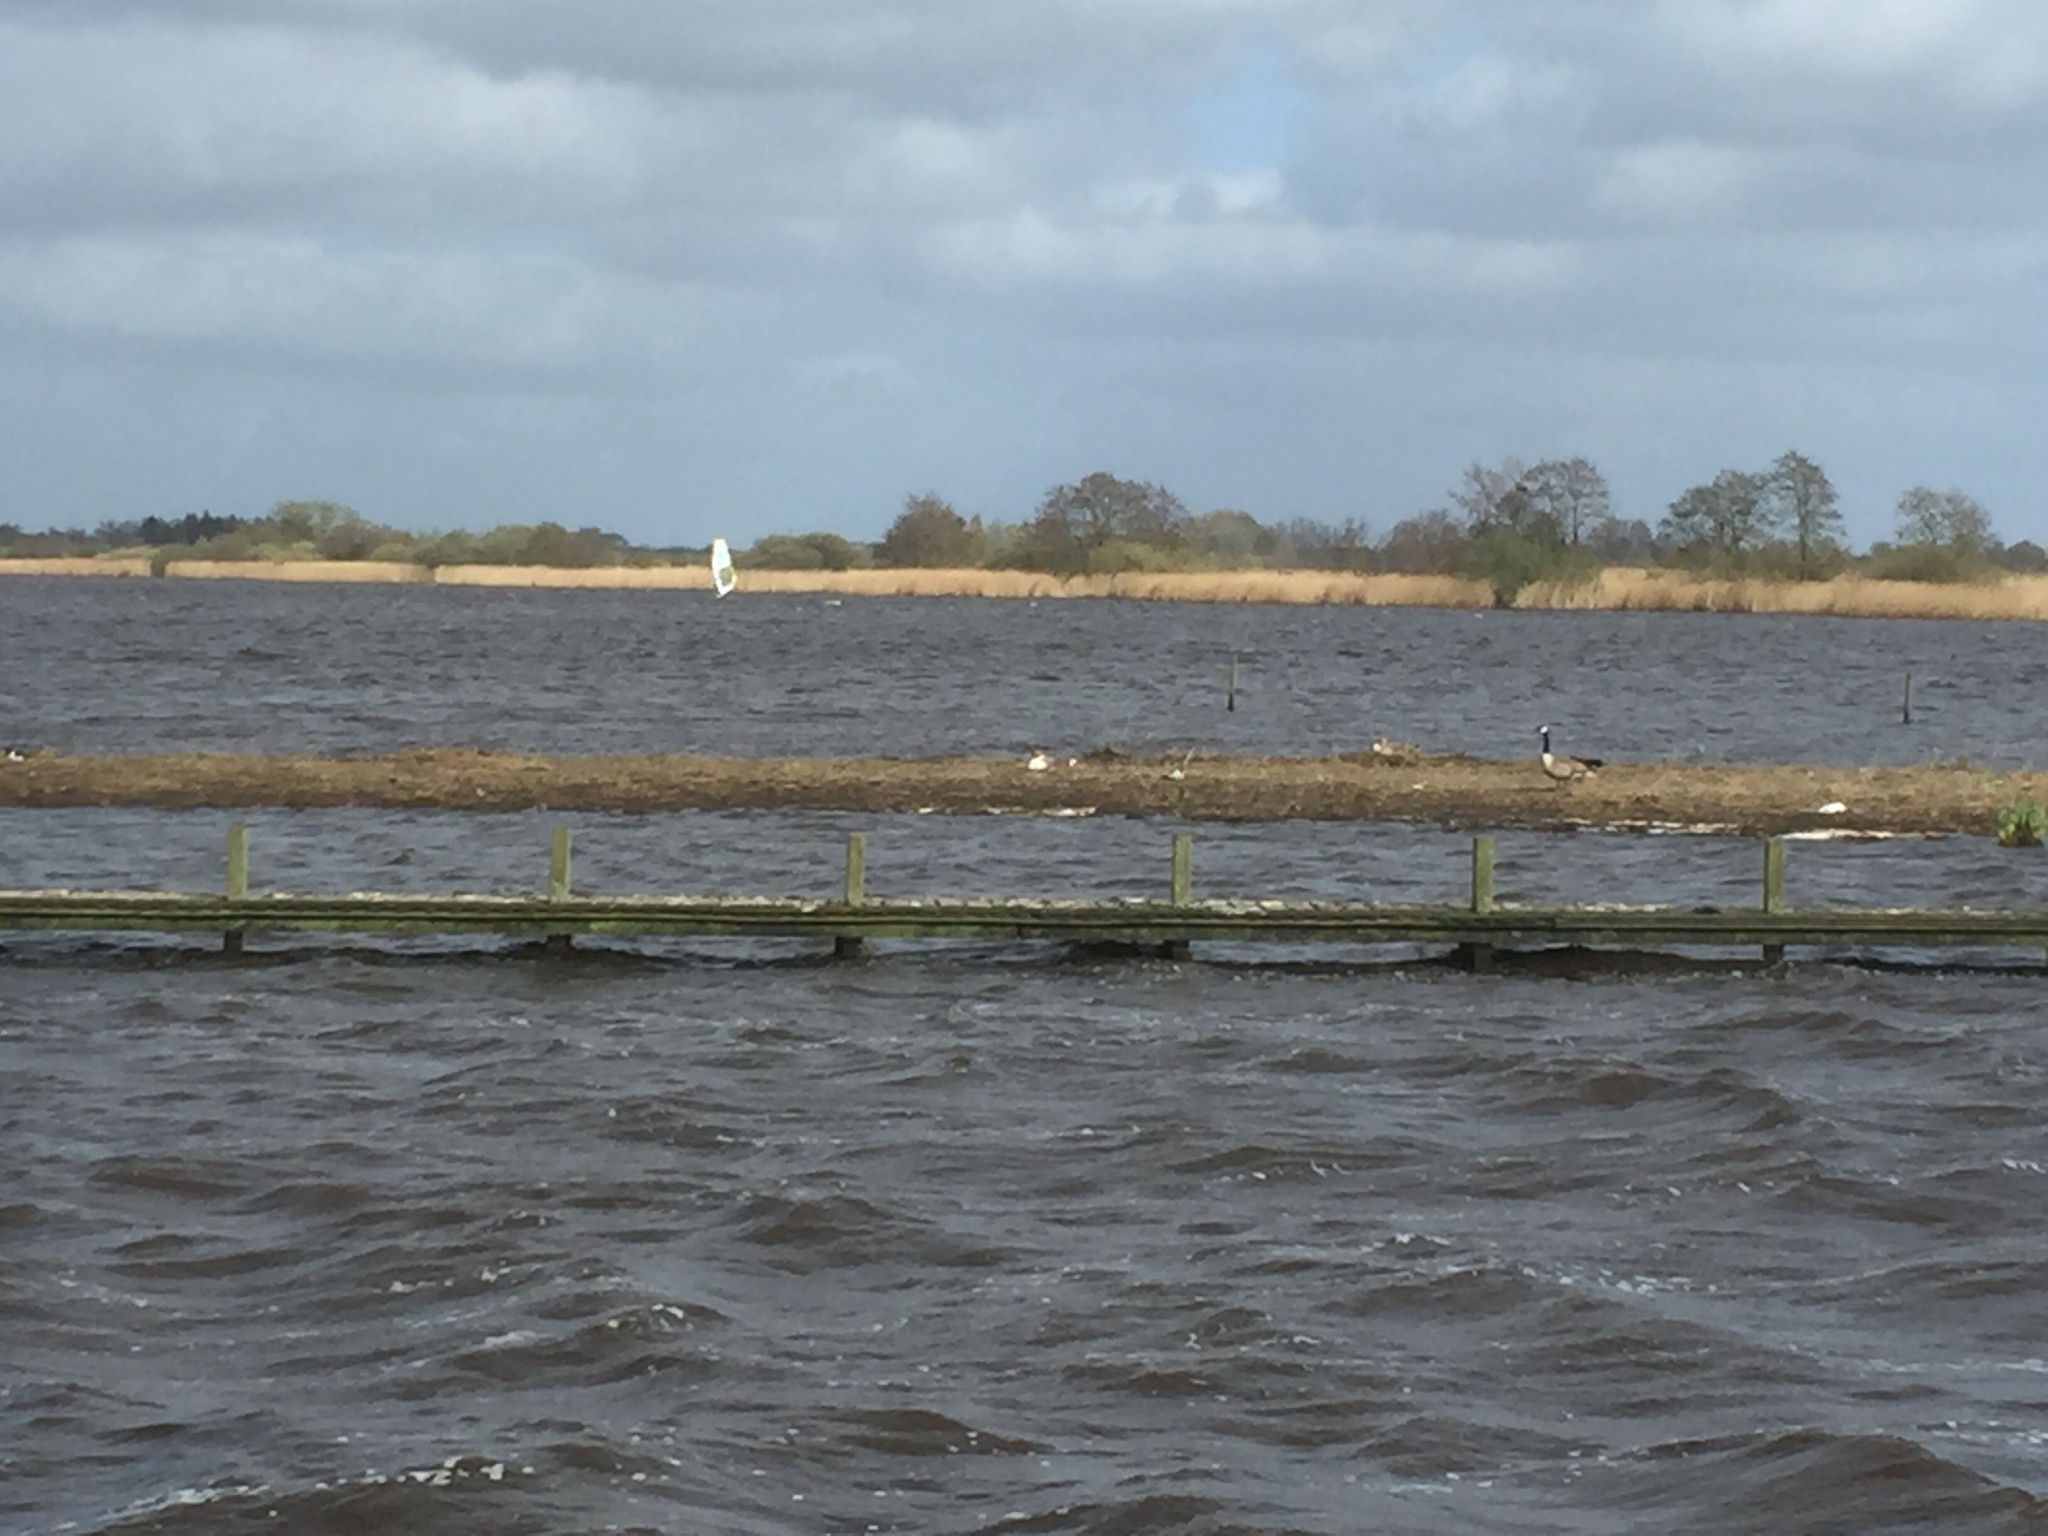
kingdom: Animalia
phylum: Chordata
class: Aves
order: Anseriformes
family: Anatidae
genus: Branta
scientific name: Branta canadensis
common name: Canada goose
